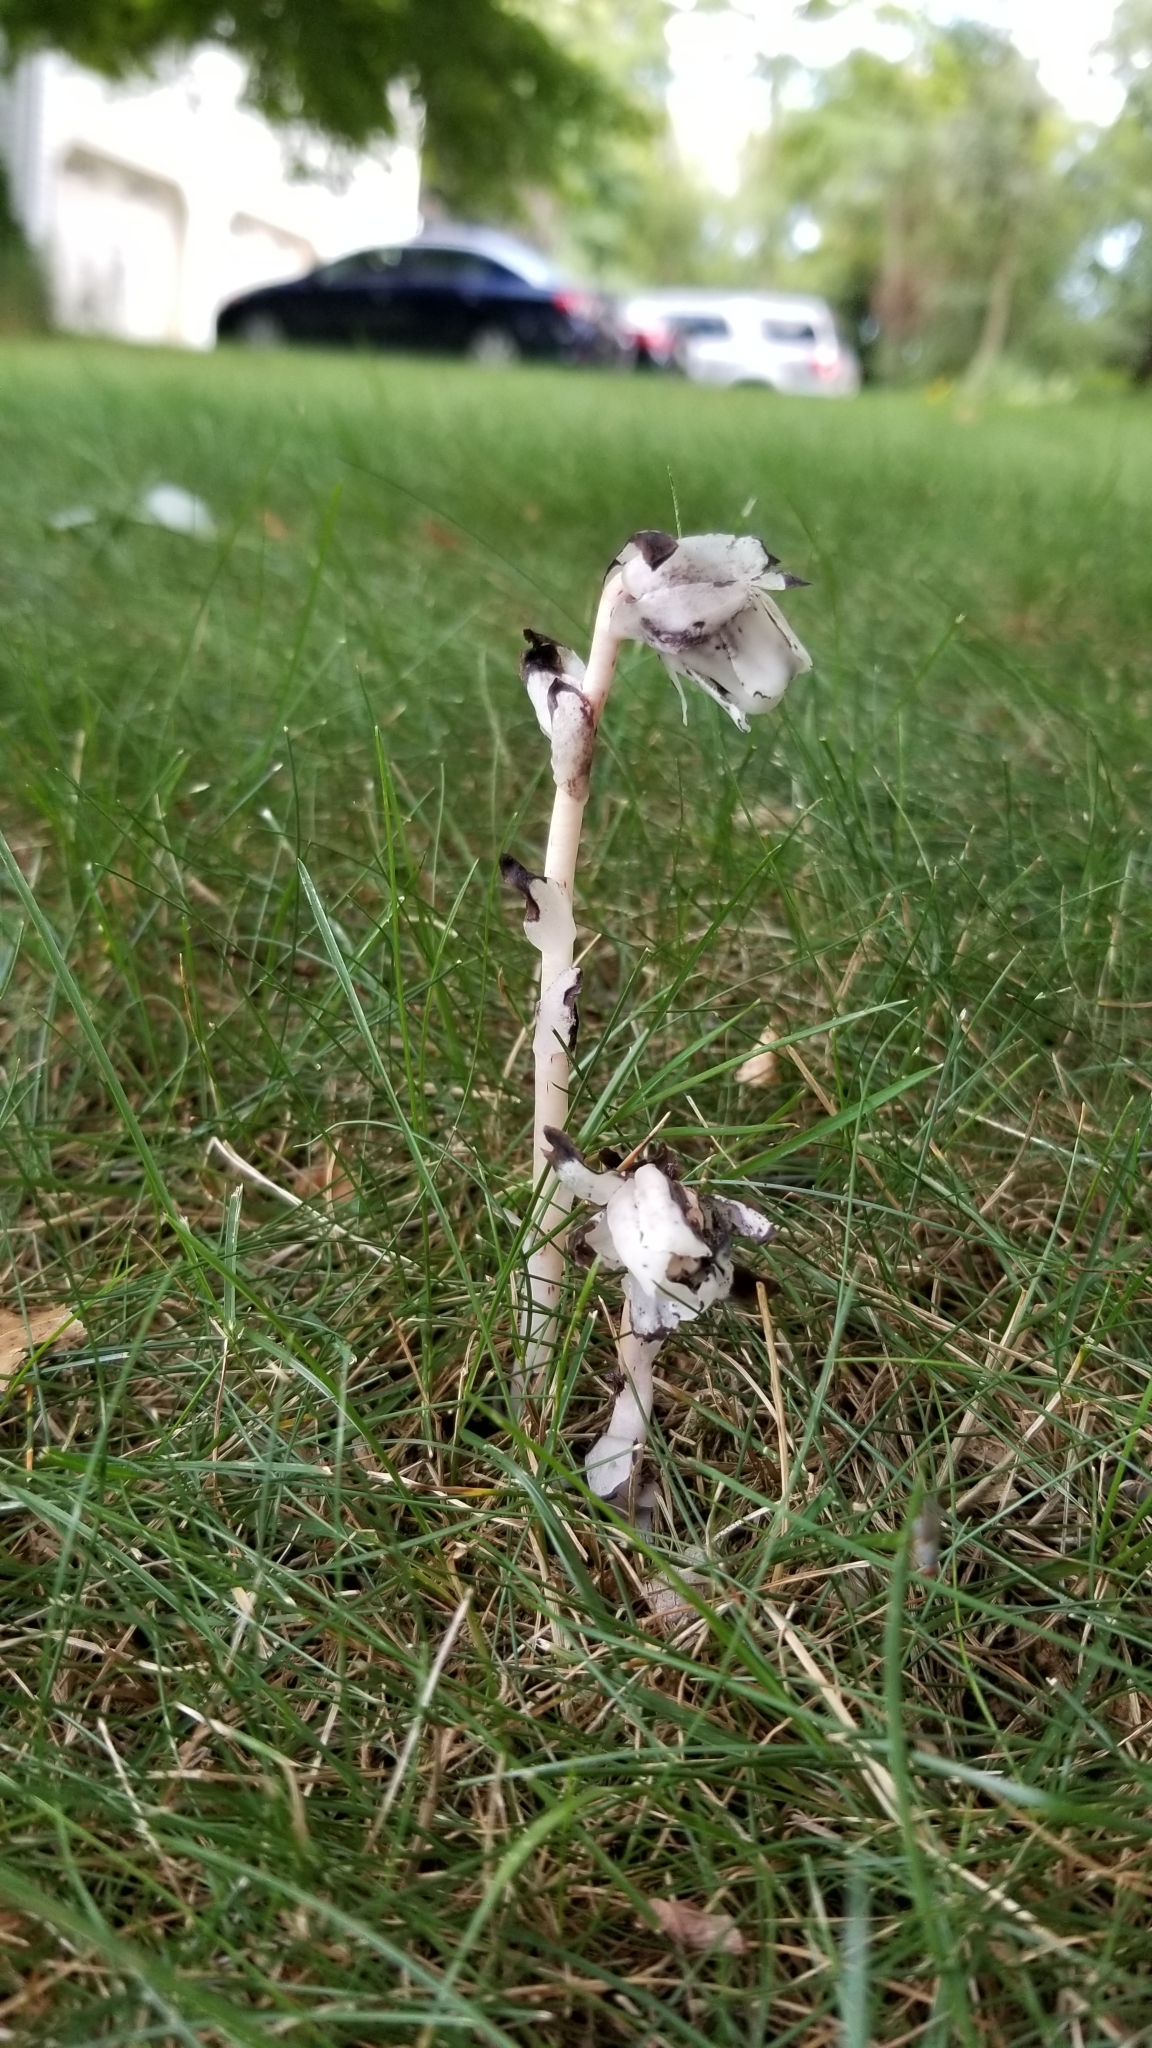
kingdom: Plantae
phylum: Tracheophyta
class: Magnoliopsida
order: Ericales
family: Ericaceae
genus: Monotropa
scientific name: Monotropa uniflora
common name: Convulsion root
